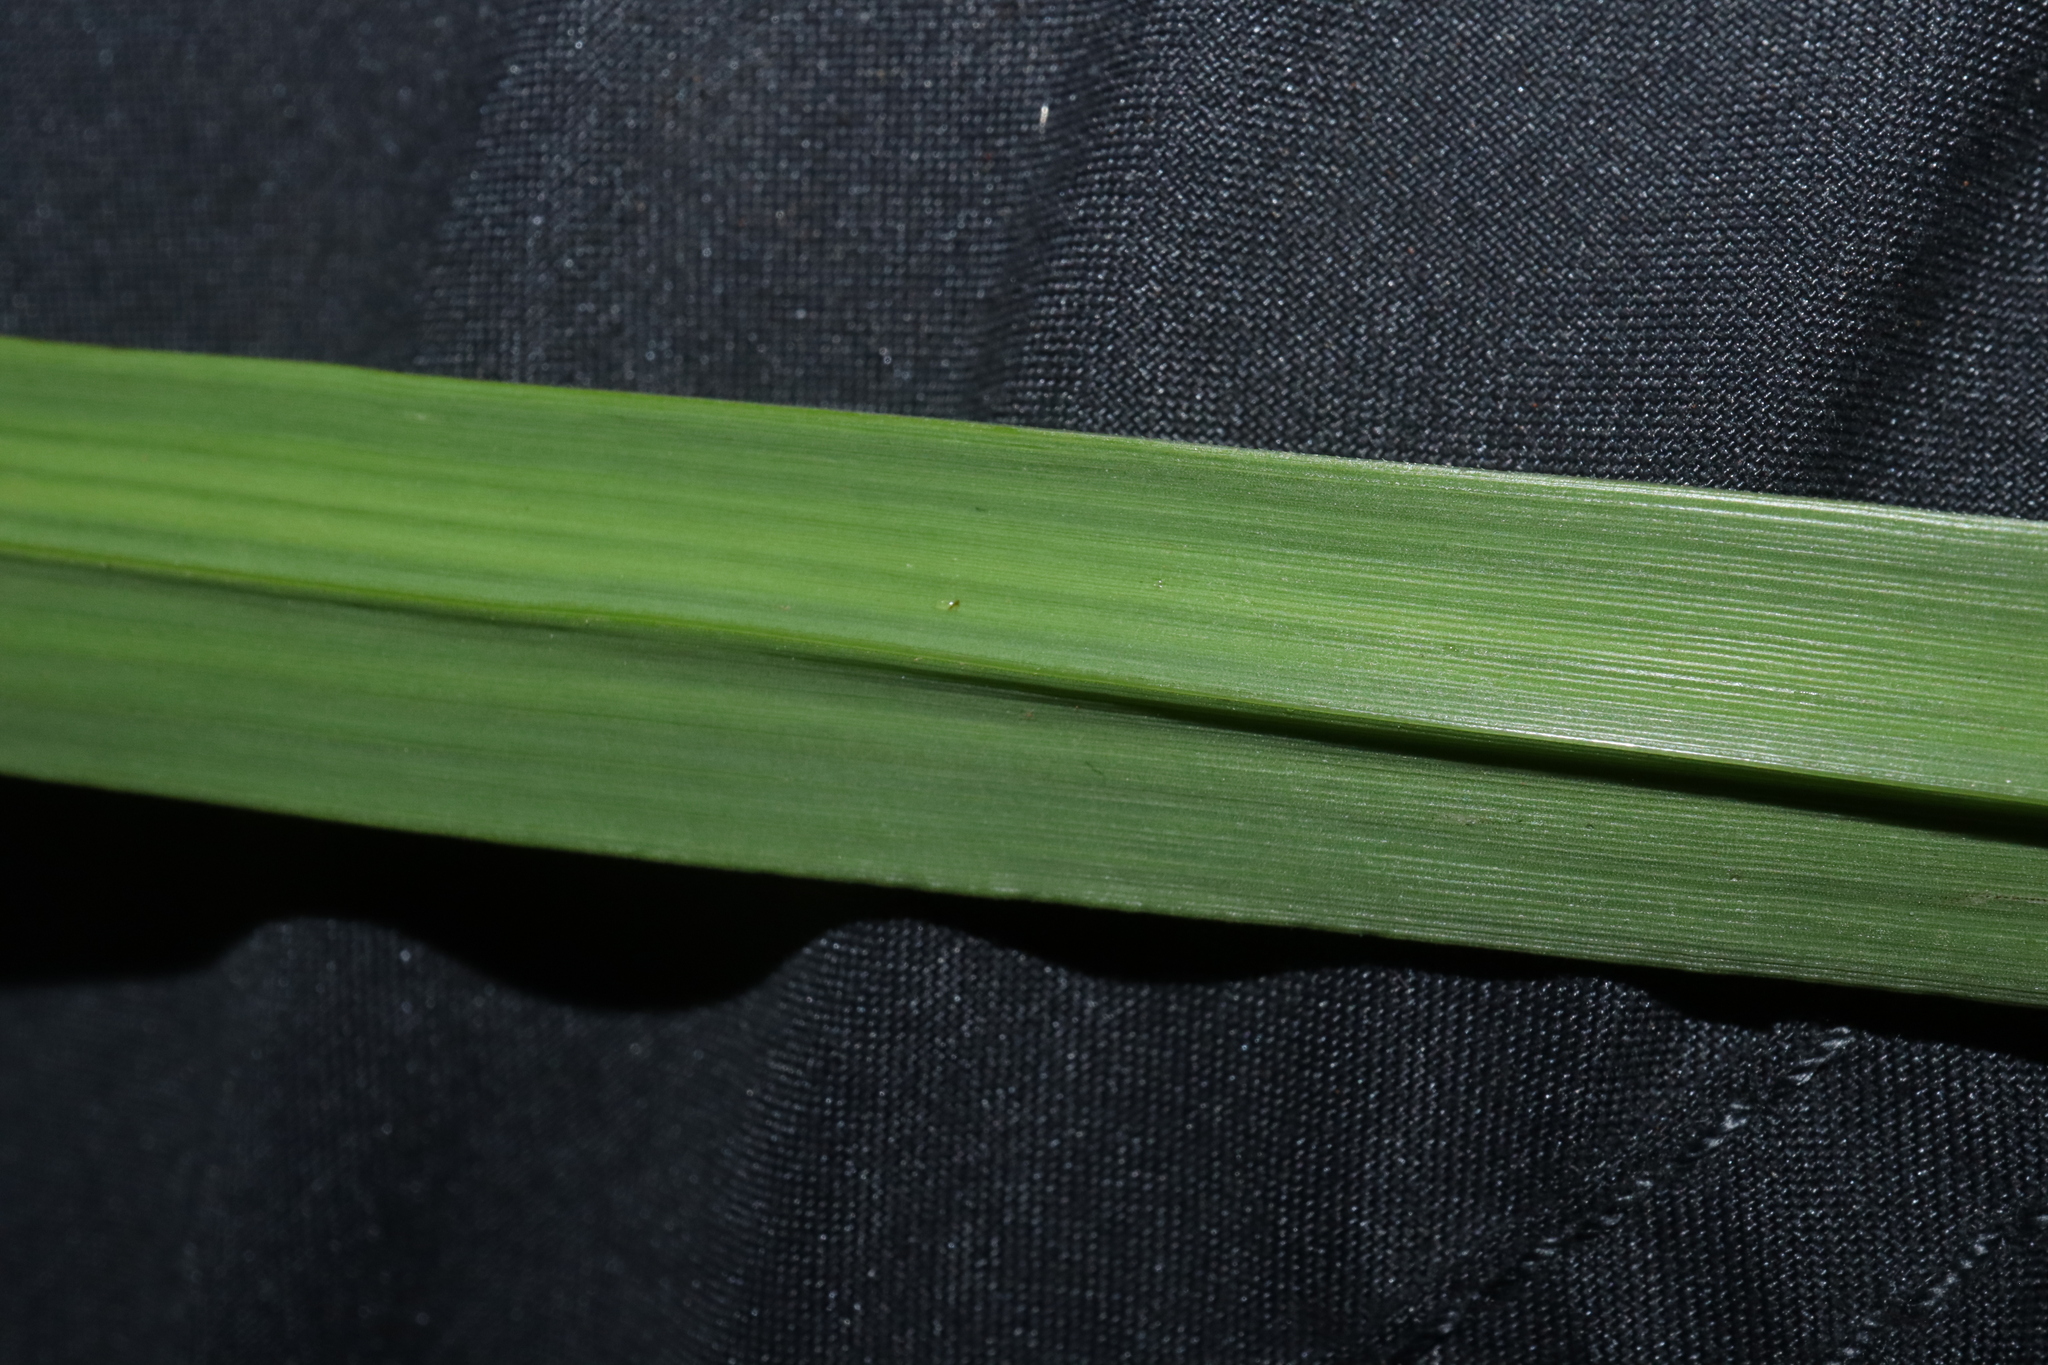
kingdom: Plantae
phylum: Tracheophyta
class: Liliopsida
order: Poales
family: Poaceae
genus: Paspalum
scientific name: Paspalum dilatatum
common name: Dallisgrass
